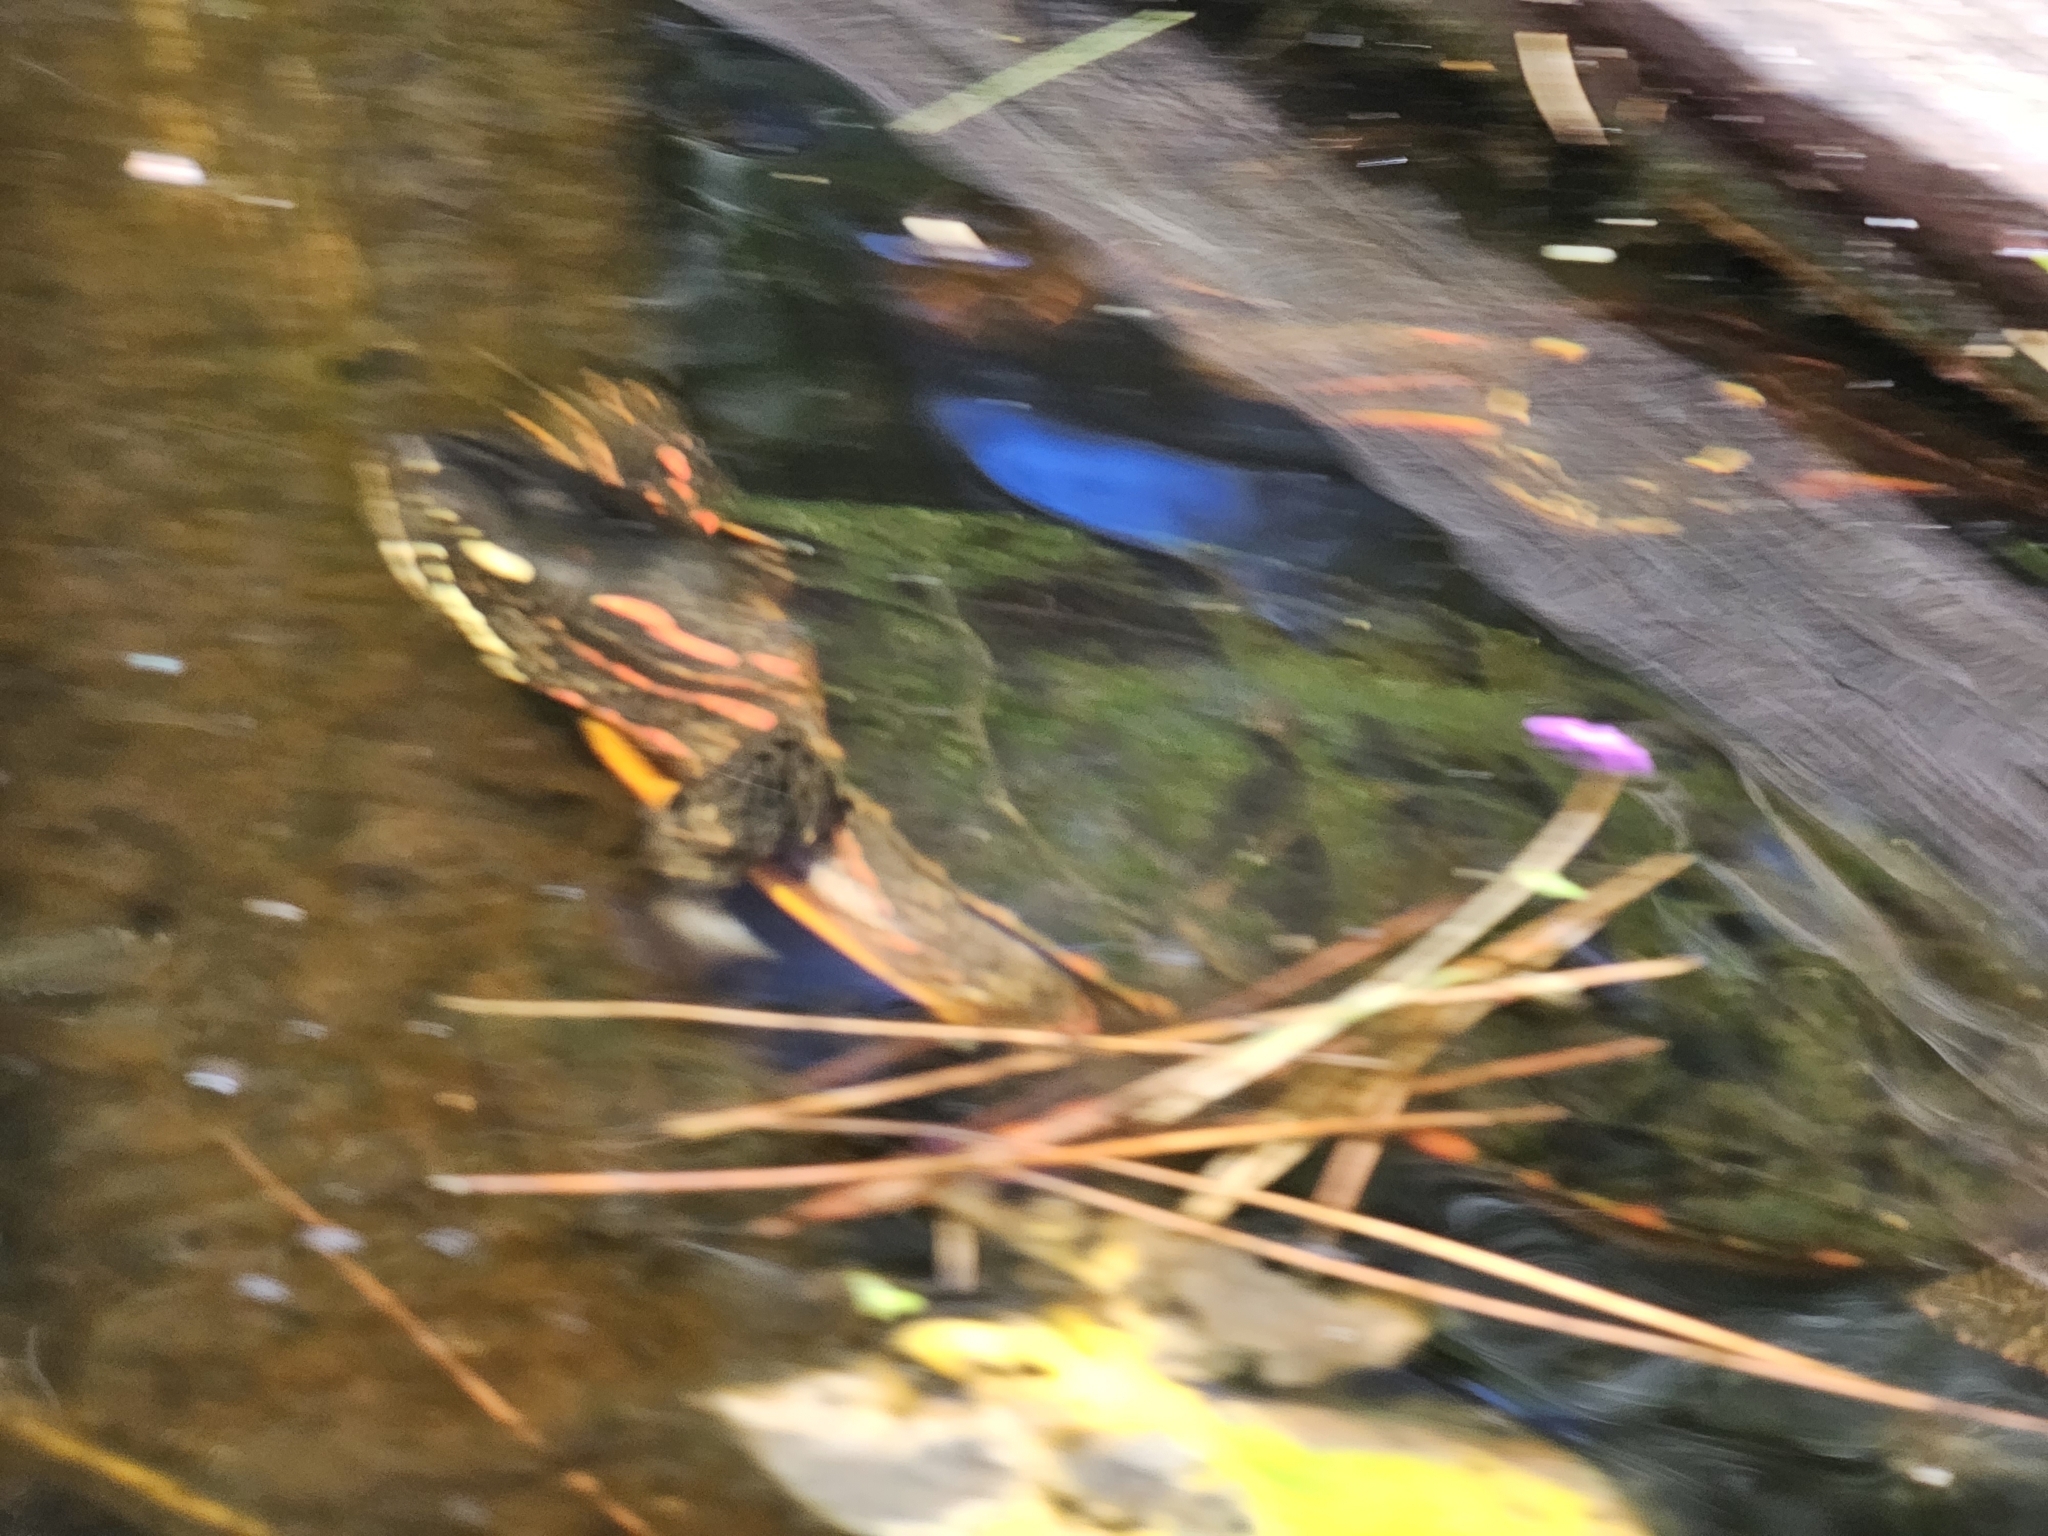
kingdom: Animalia
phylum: Chordata
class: Testudines
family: Emydidae
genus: Chrysemys
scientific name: Chrysemys picta
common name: Painted turtle
